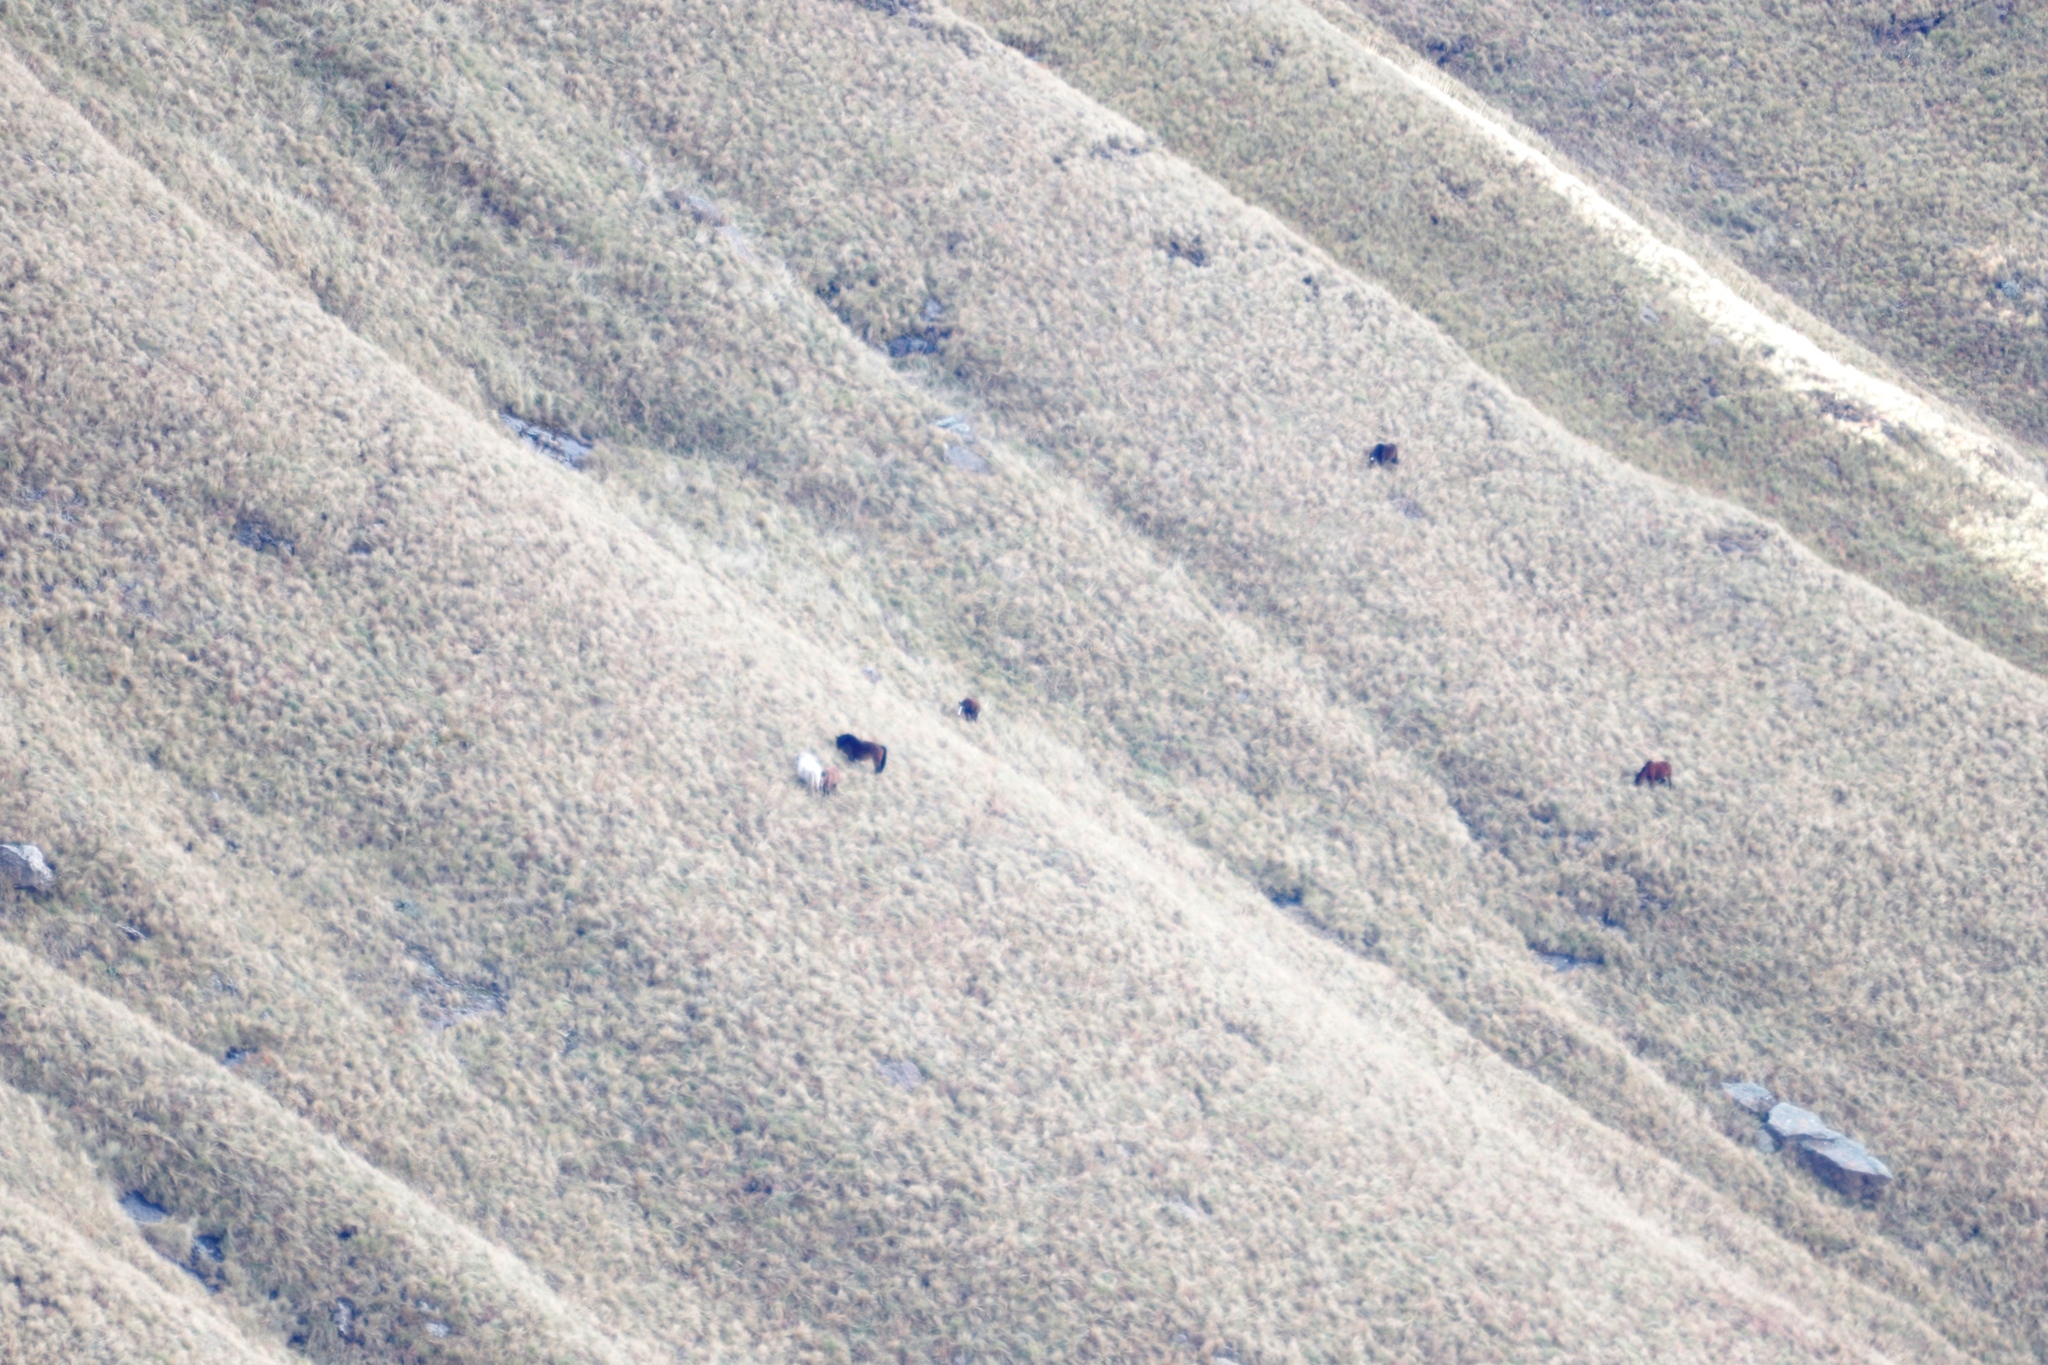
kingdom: Animalia
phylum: Chordata
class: Mammalia
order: Perissodactyla
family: Equidae
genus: Equus
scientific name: Equus caballus
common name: Horse
